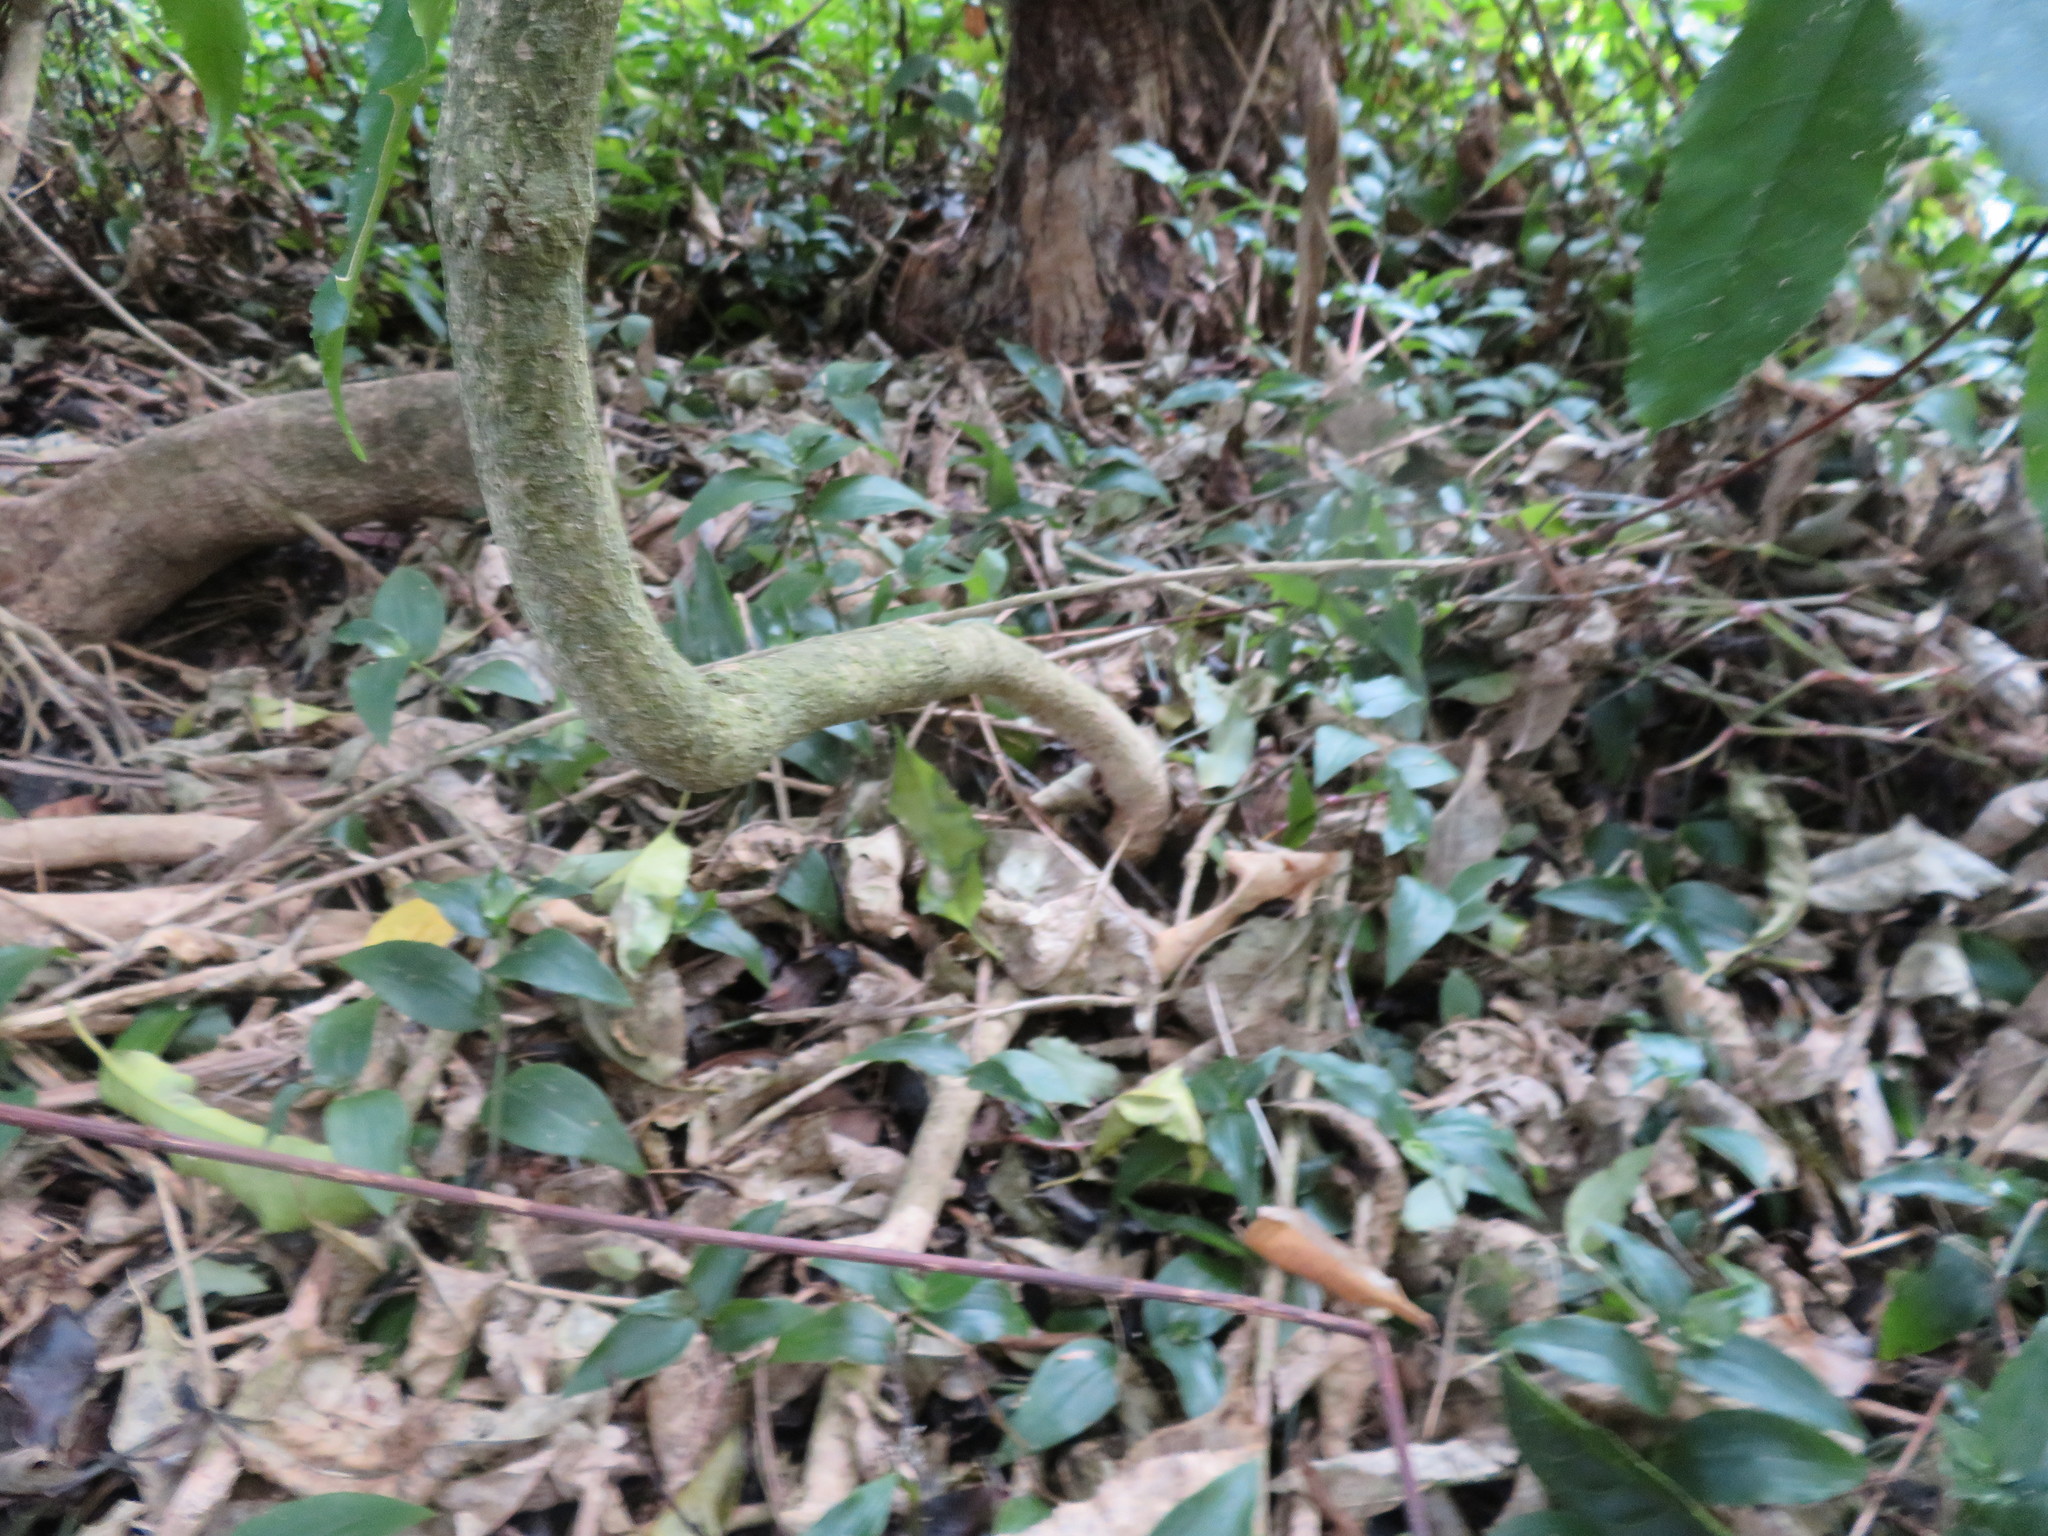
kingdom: Plantae
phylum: Tracheophyta
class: Magnoliopsida
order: Gentianales
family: Apocynaceae
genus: Araujia
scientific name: Araujia sericifera
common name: White bladderflower
